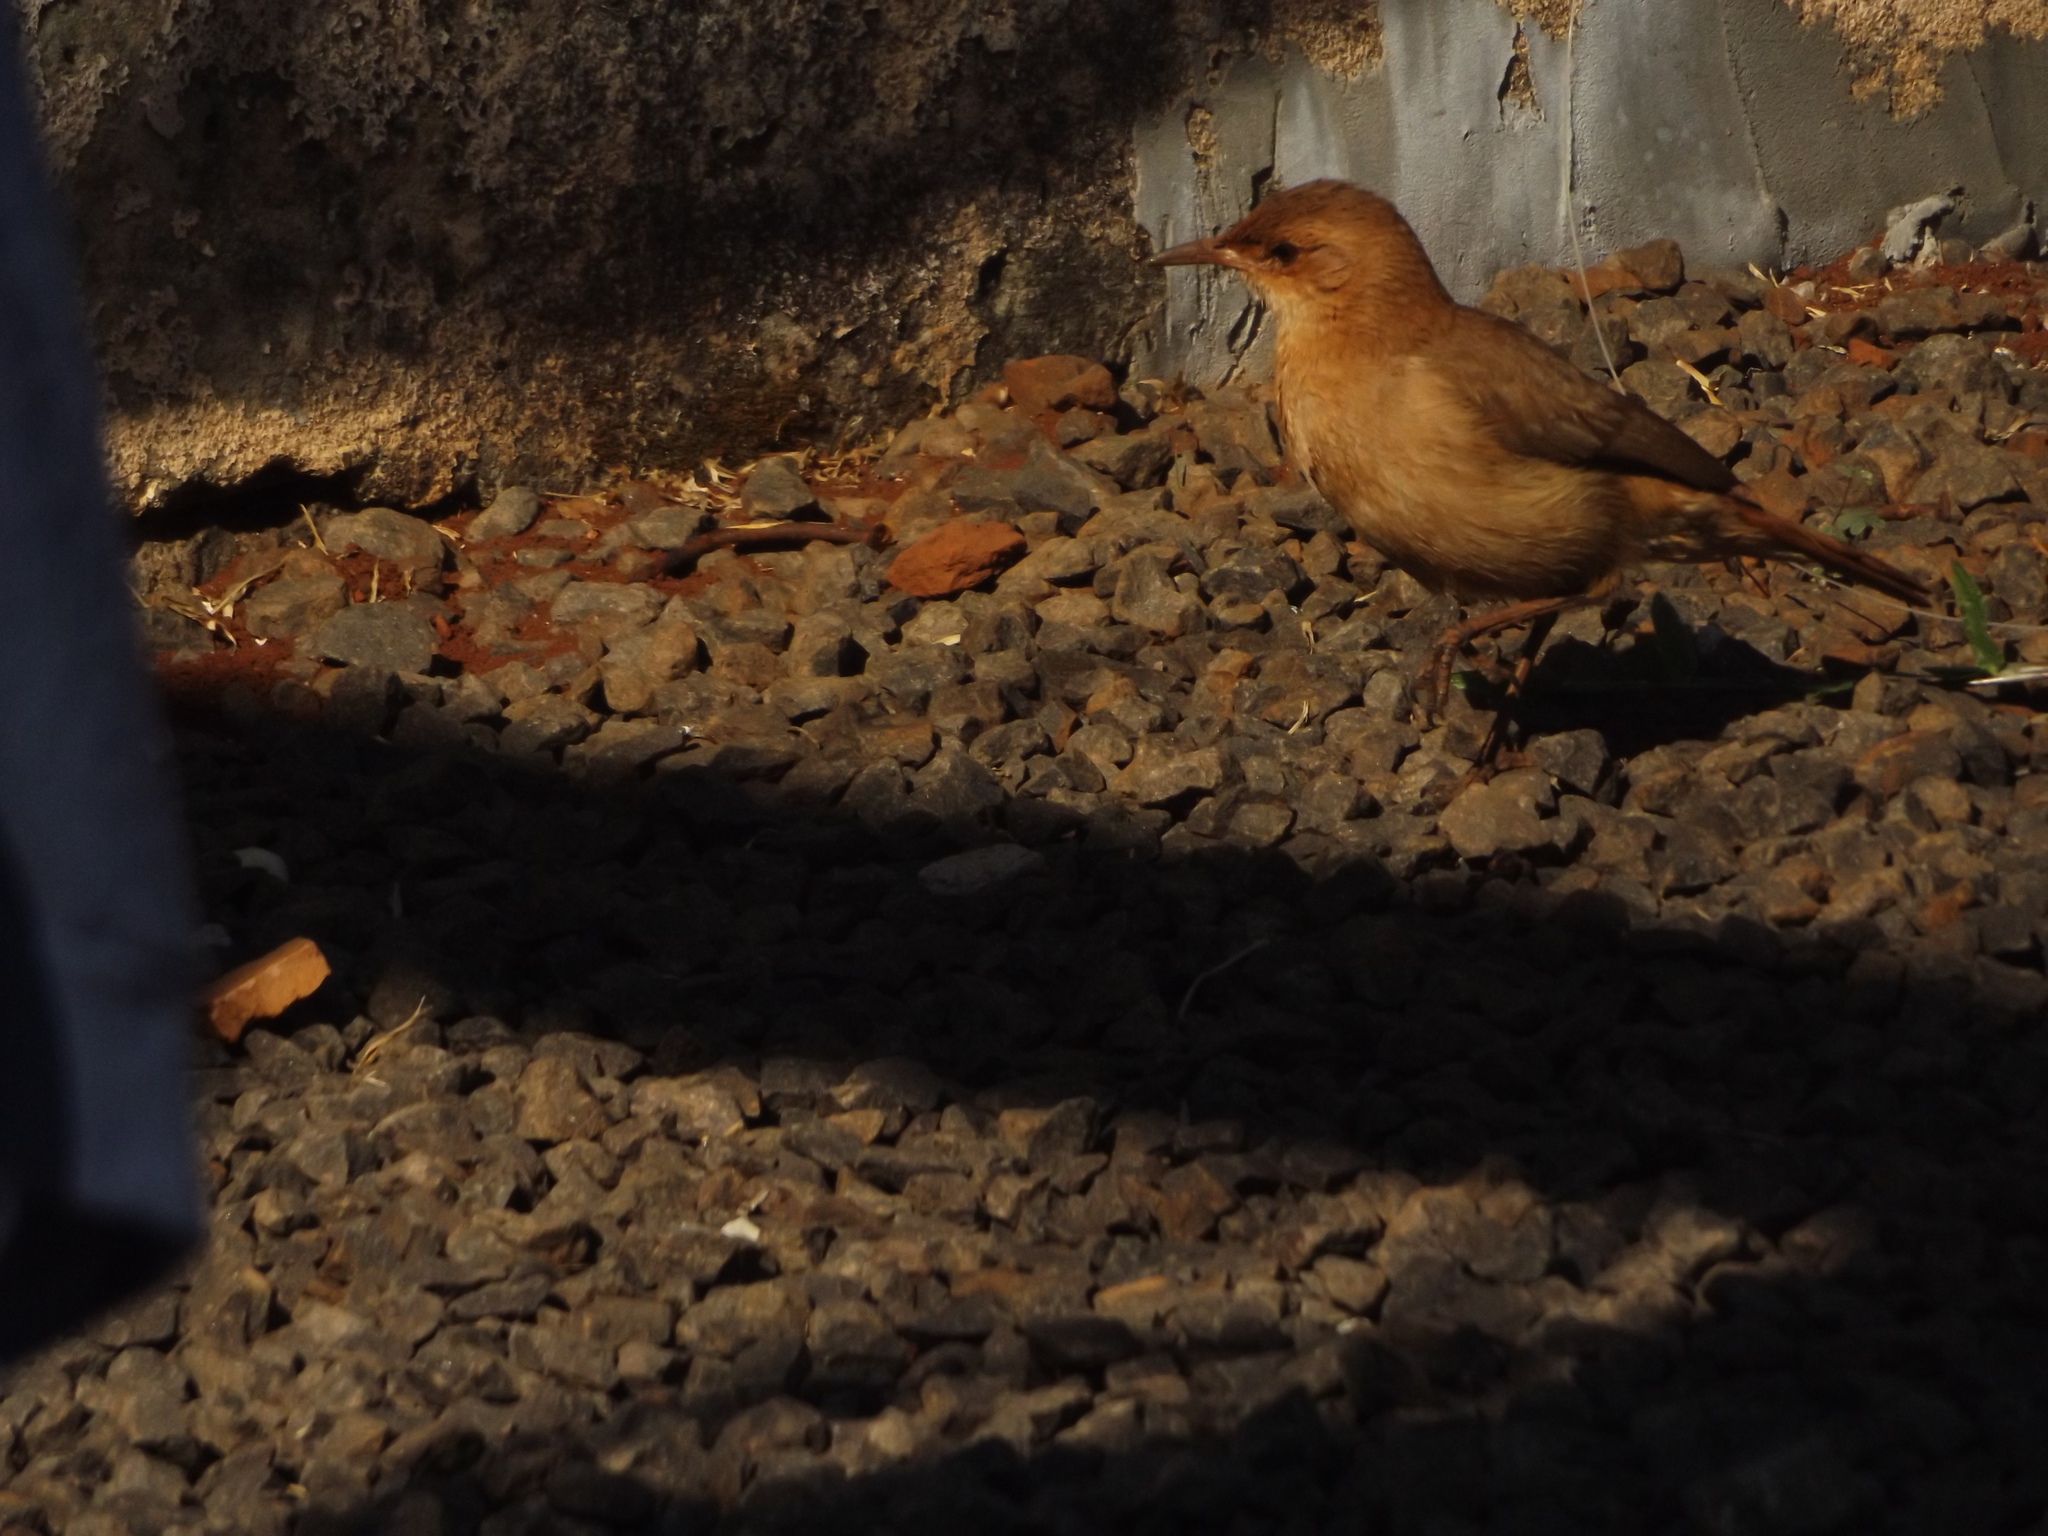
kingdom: Animalia
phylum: Chordata
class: Aves
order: Passeriformes
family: Furnariidae
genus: Furnarius
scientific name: Furnarius rufus
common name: Rufous hornero
